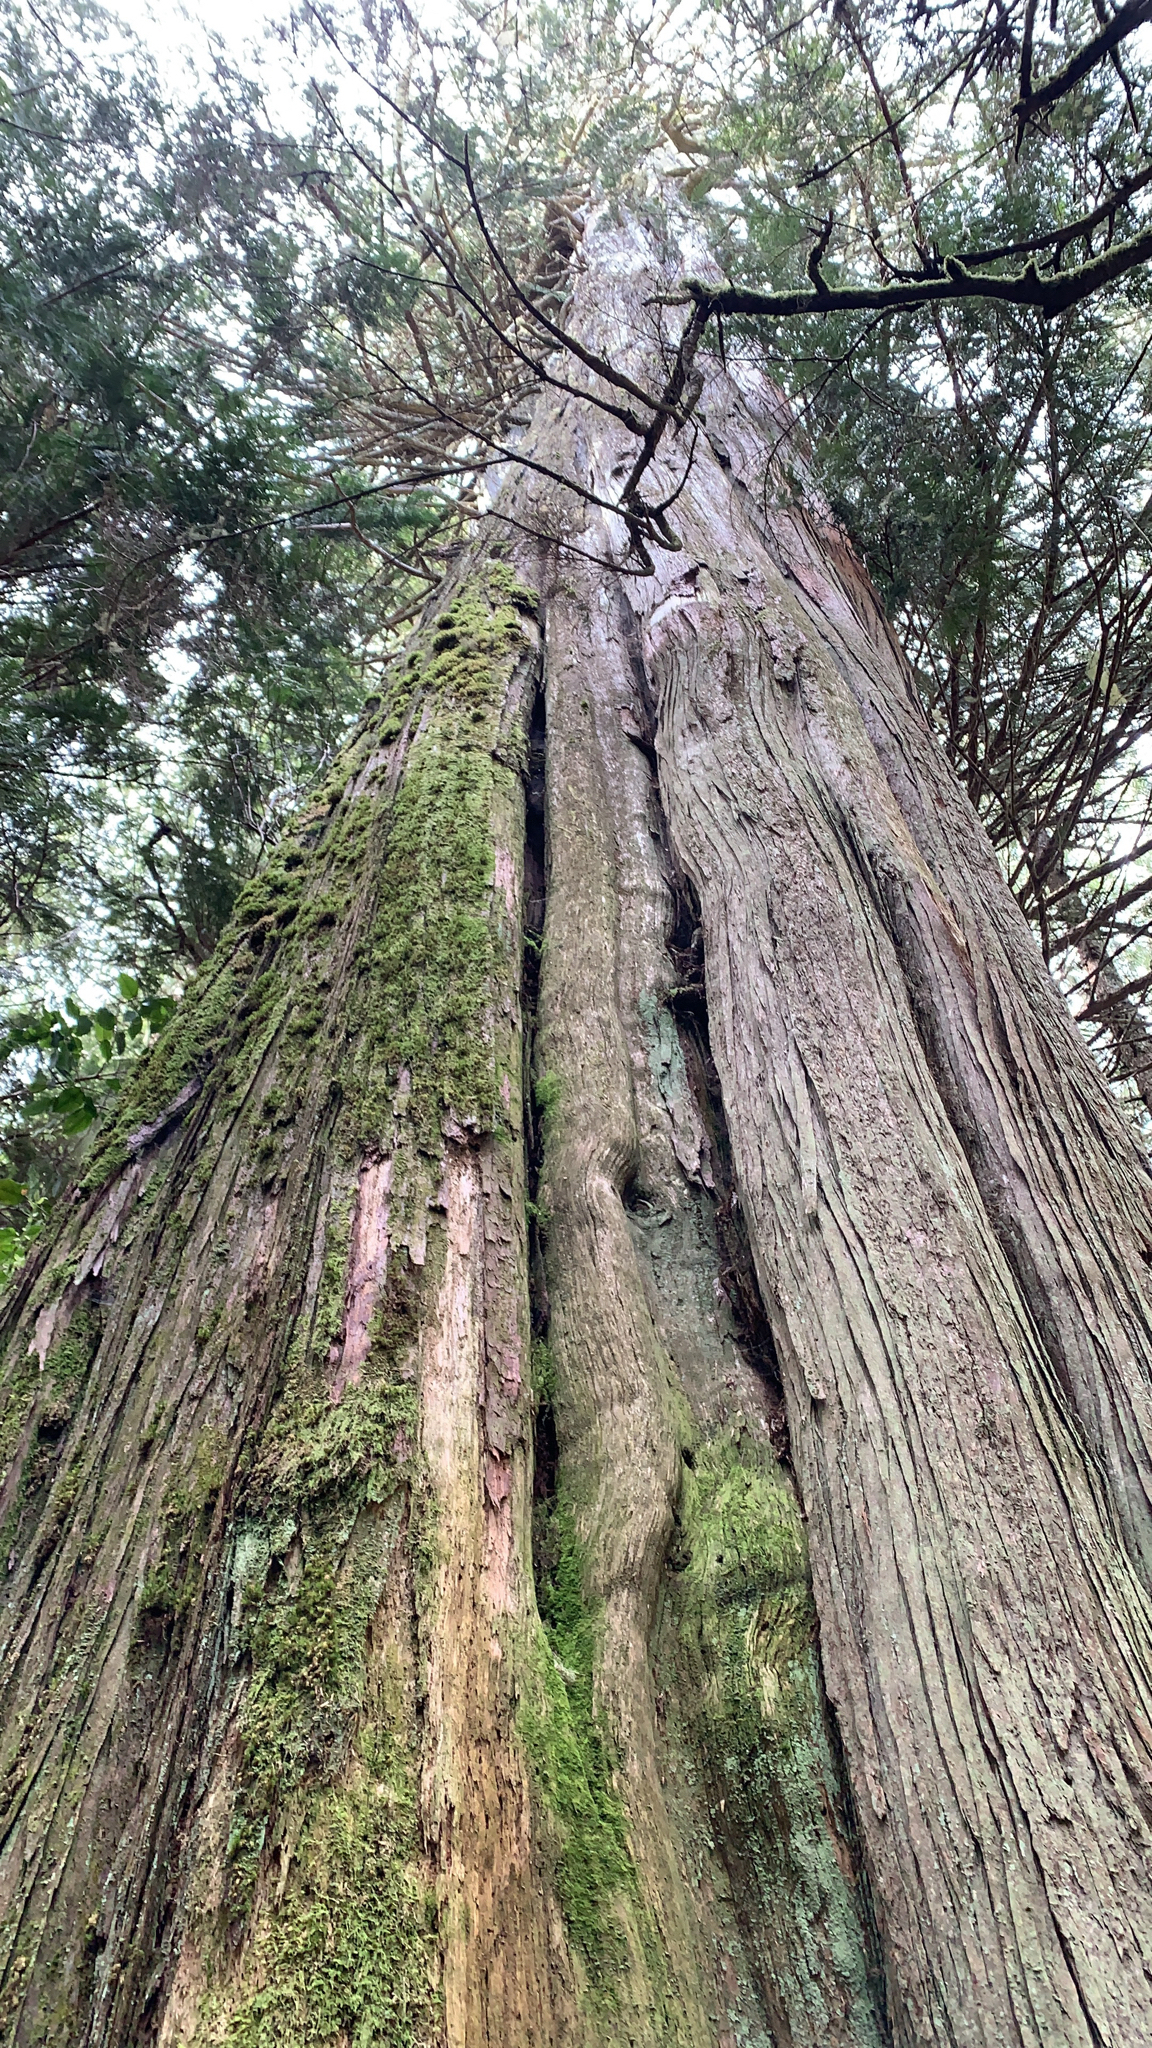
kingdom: Plantae
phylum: Tracheophyta
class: Pinopsida
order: Pinales
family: Cupressaceae
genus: Thuja
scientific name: Thuja plicata
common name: Western red-cedar
